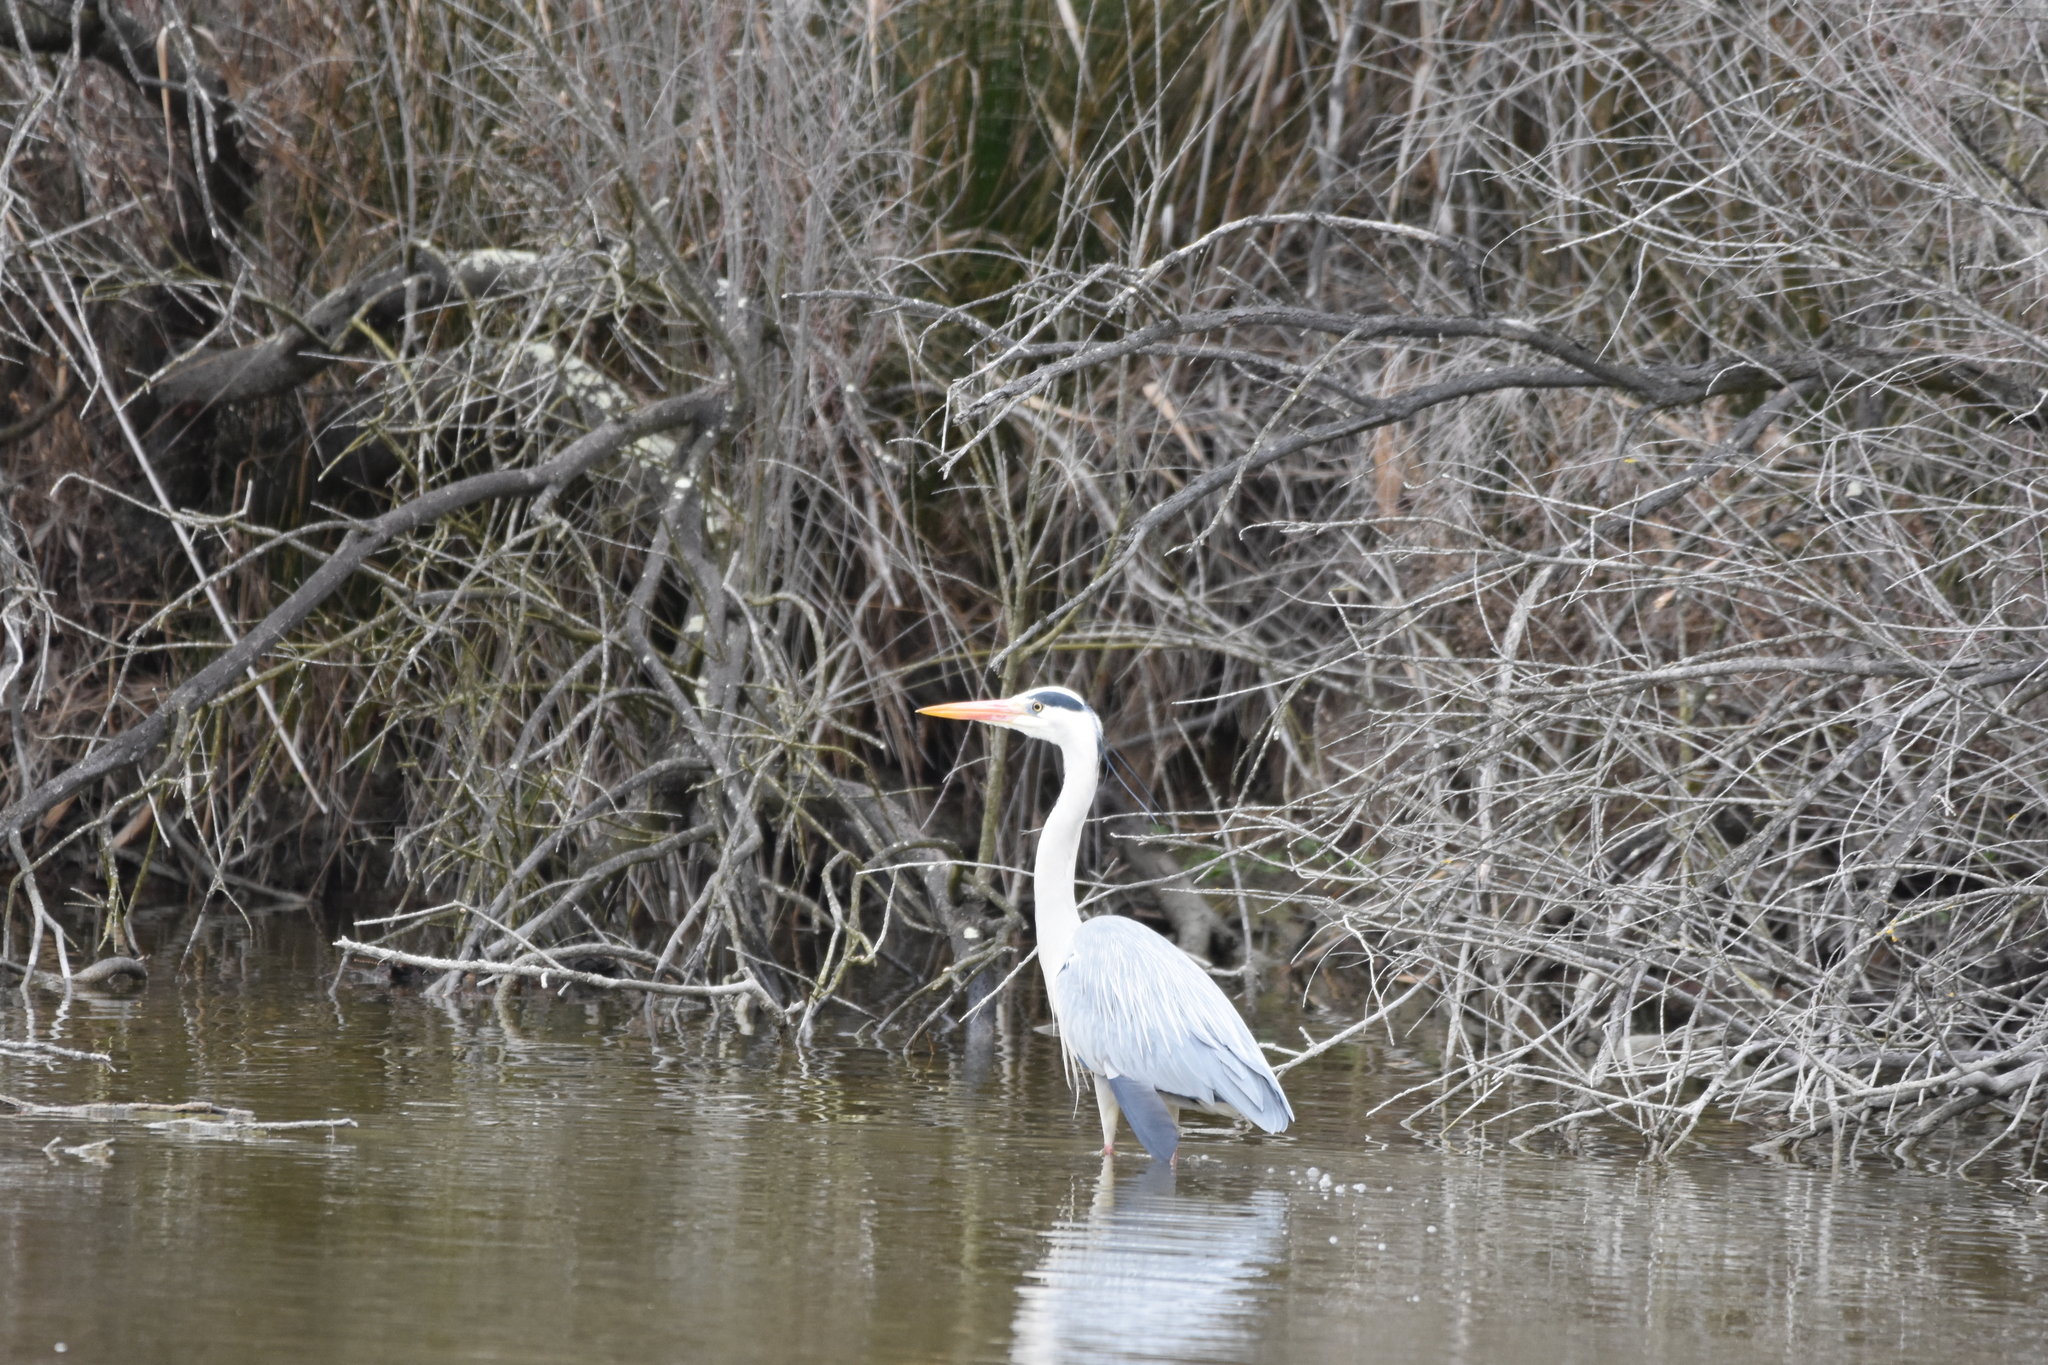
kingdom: Animalia
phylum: Chordata
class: Aves
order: Pelecaniformes
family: Ardeidae
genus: Ardea
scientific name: Ardea cinerea
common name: Grey heron
